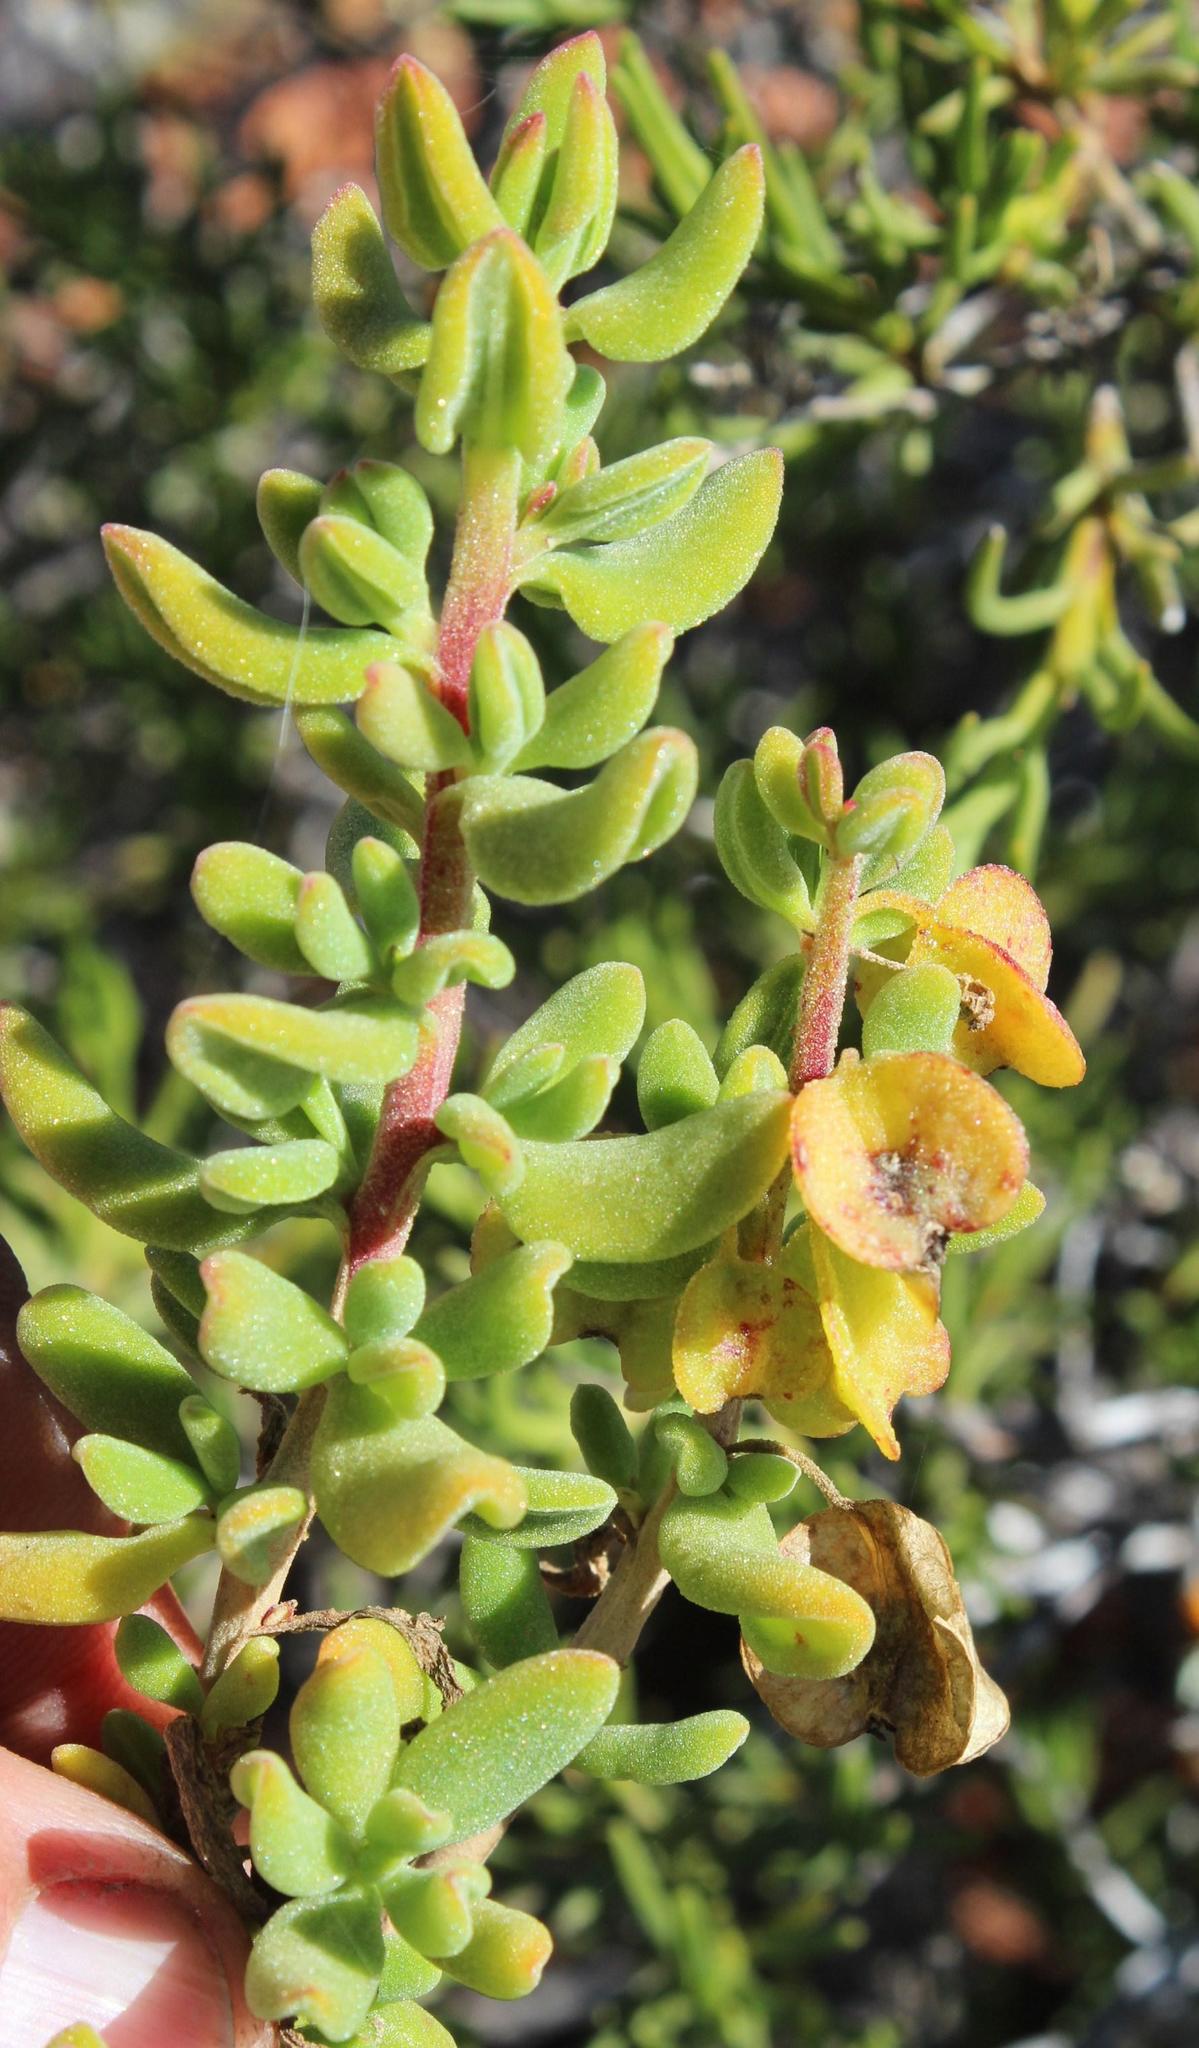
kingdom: Plantae
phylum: Tracheophyta
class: Magnoliopsida
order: Caryophyllales
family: Aizoaceae
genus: Tetragonia
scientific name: Tetragonia fruticosa
